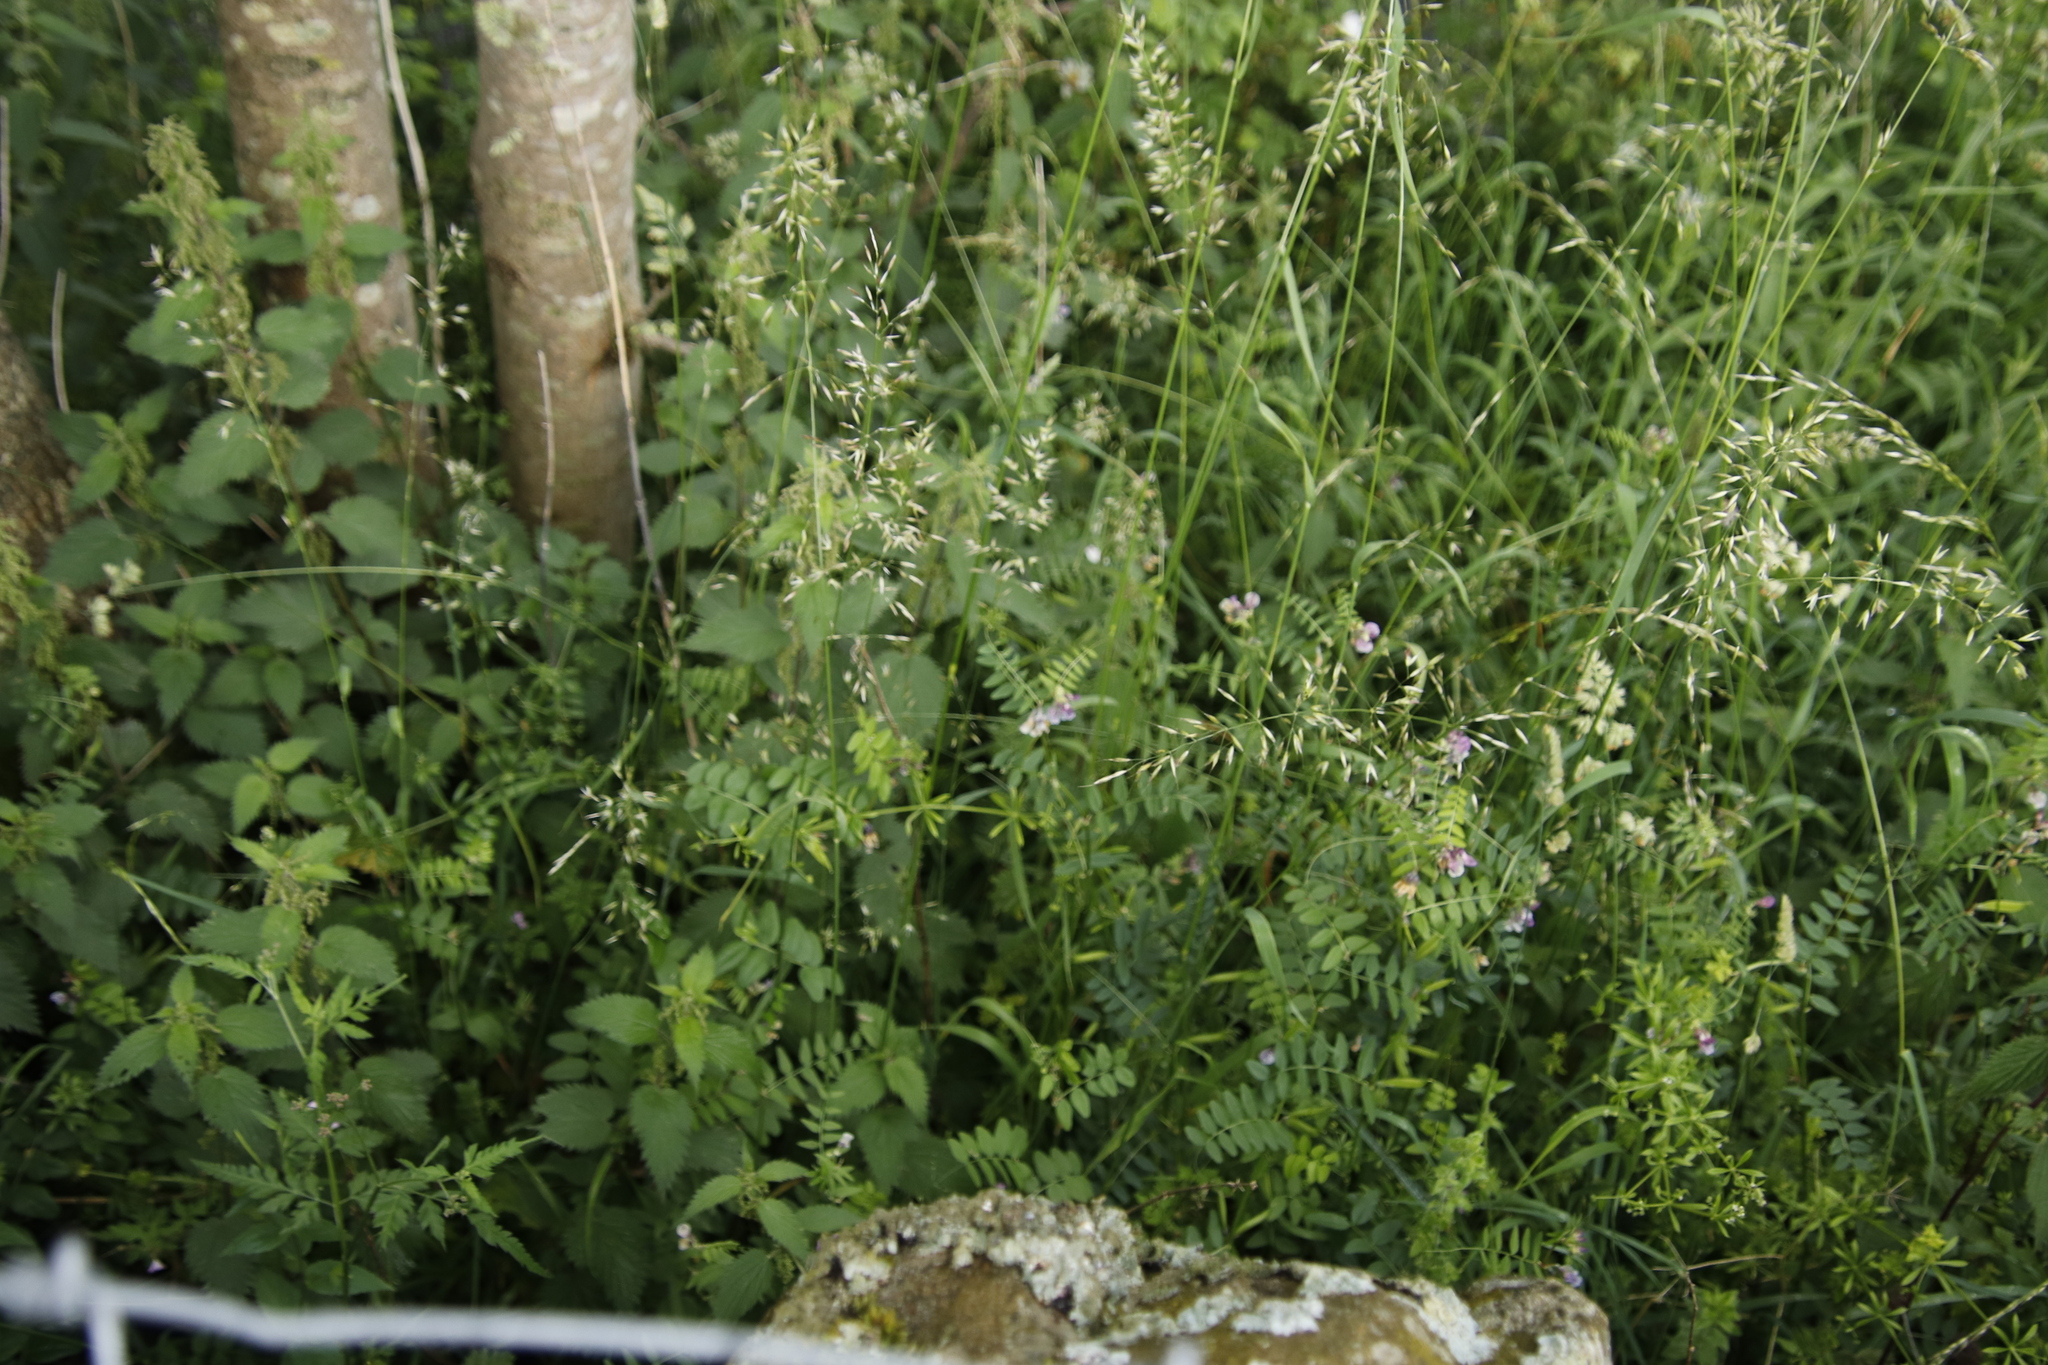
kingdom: Plantae
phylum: Tracheophyta
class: Magnoliopsida
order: Fabales
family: Fabaceae
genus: Vicia
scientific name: Vicia sepium
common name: Bush vetch
